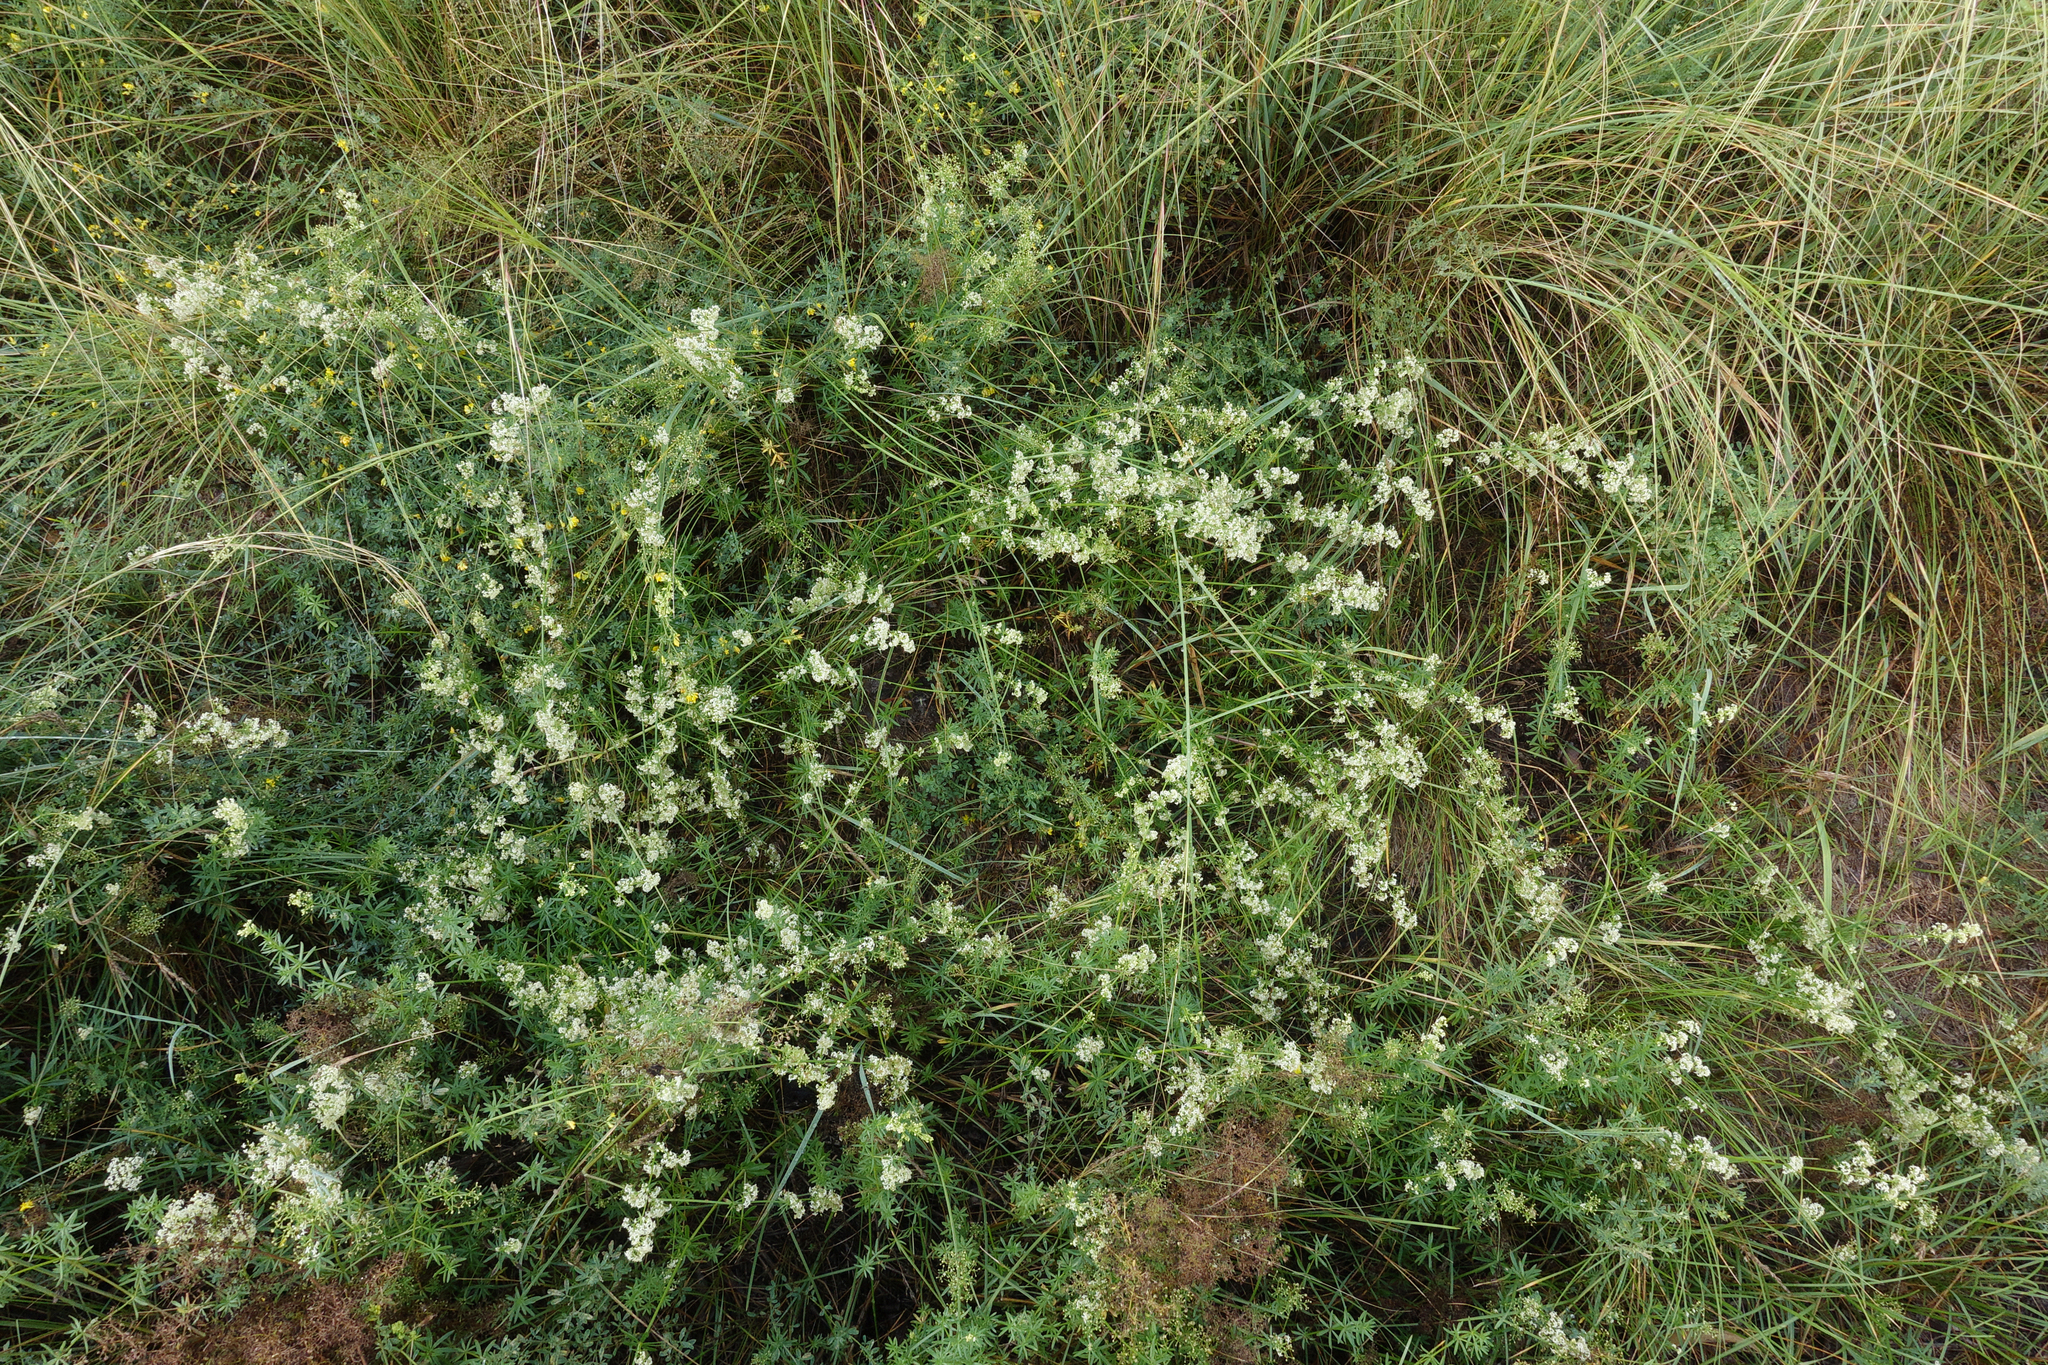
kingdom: Plantae
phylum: Tracheophyta
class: Magnoliopsida
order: Gentianales
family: Rubiaceae
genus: Galium
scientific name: Galium mollugo
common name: Hedge bedstraw
